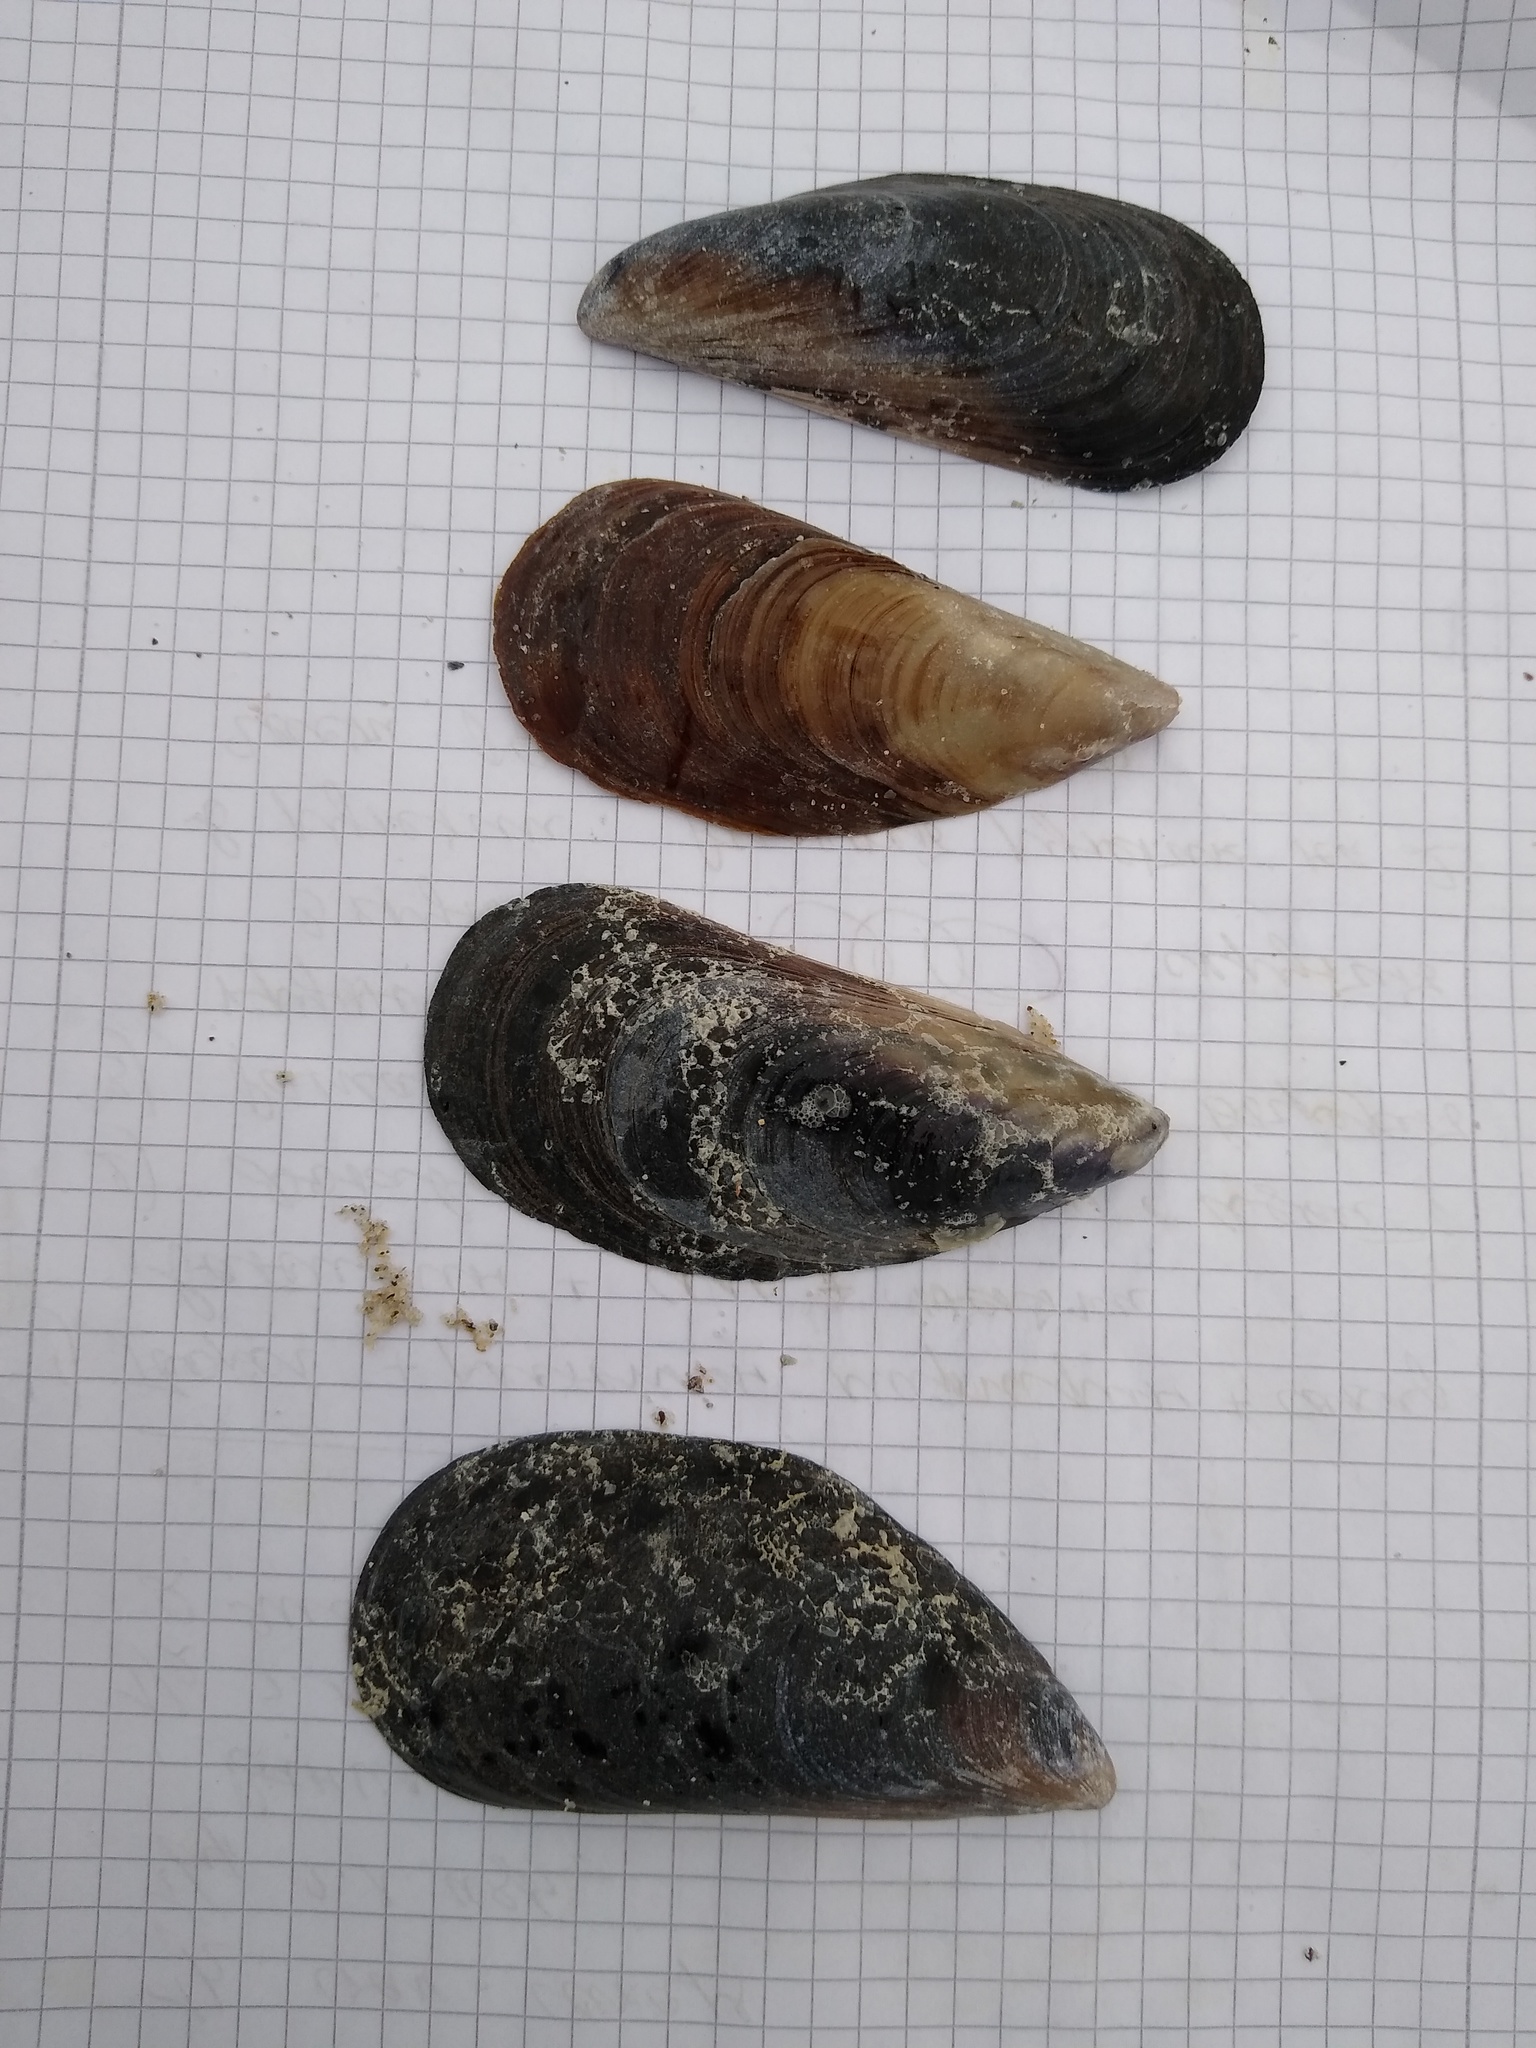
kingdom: Animalia
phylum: Mollusca
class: Bivalvia
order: Mytilida
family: Mytilidae
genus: Mytilus
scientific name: Mytilus galloprovincialis
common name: Mediterranean mussel
